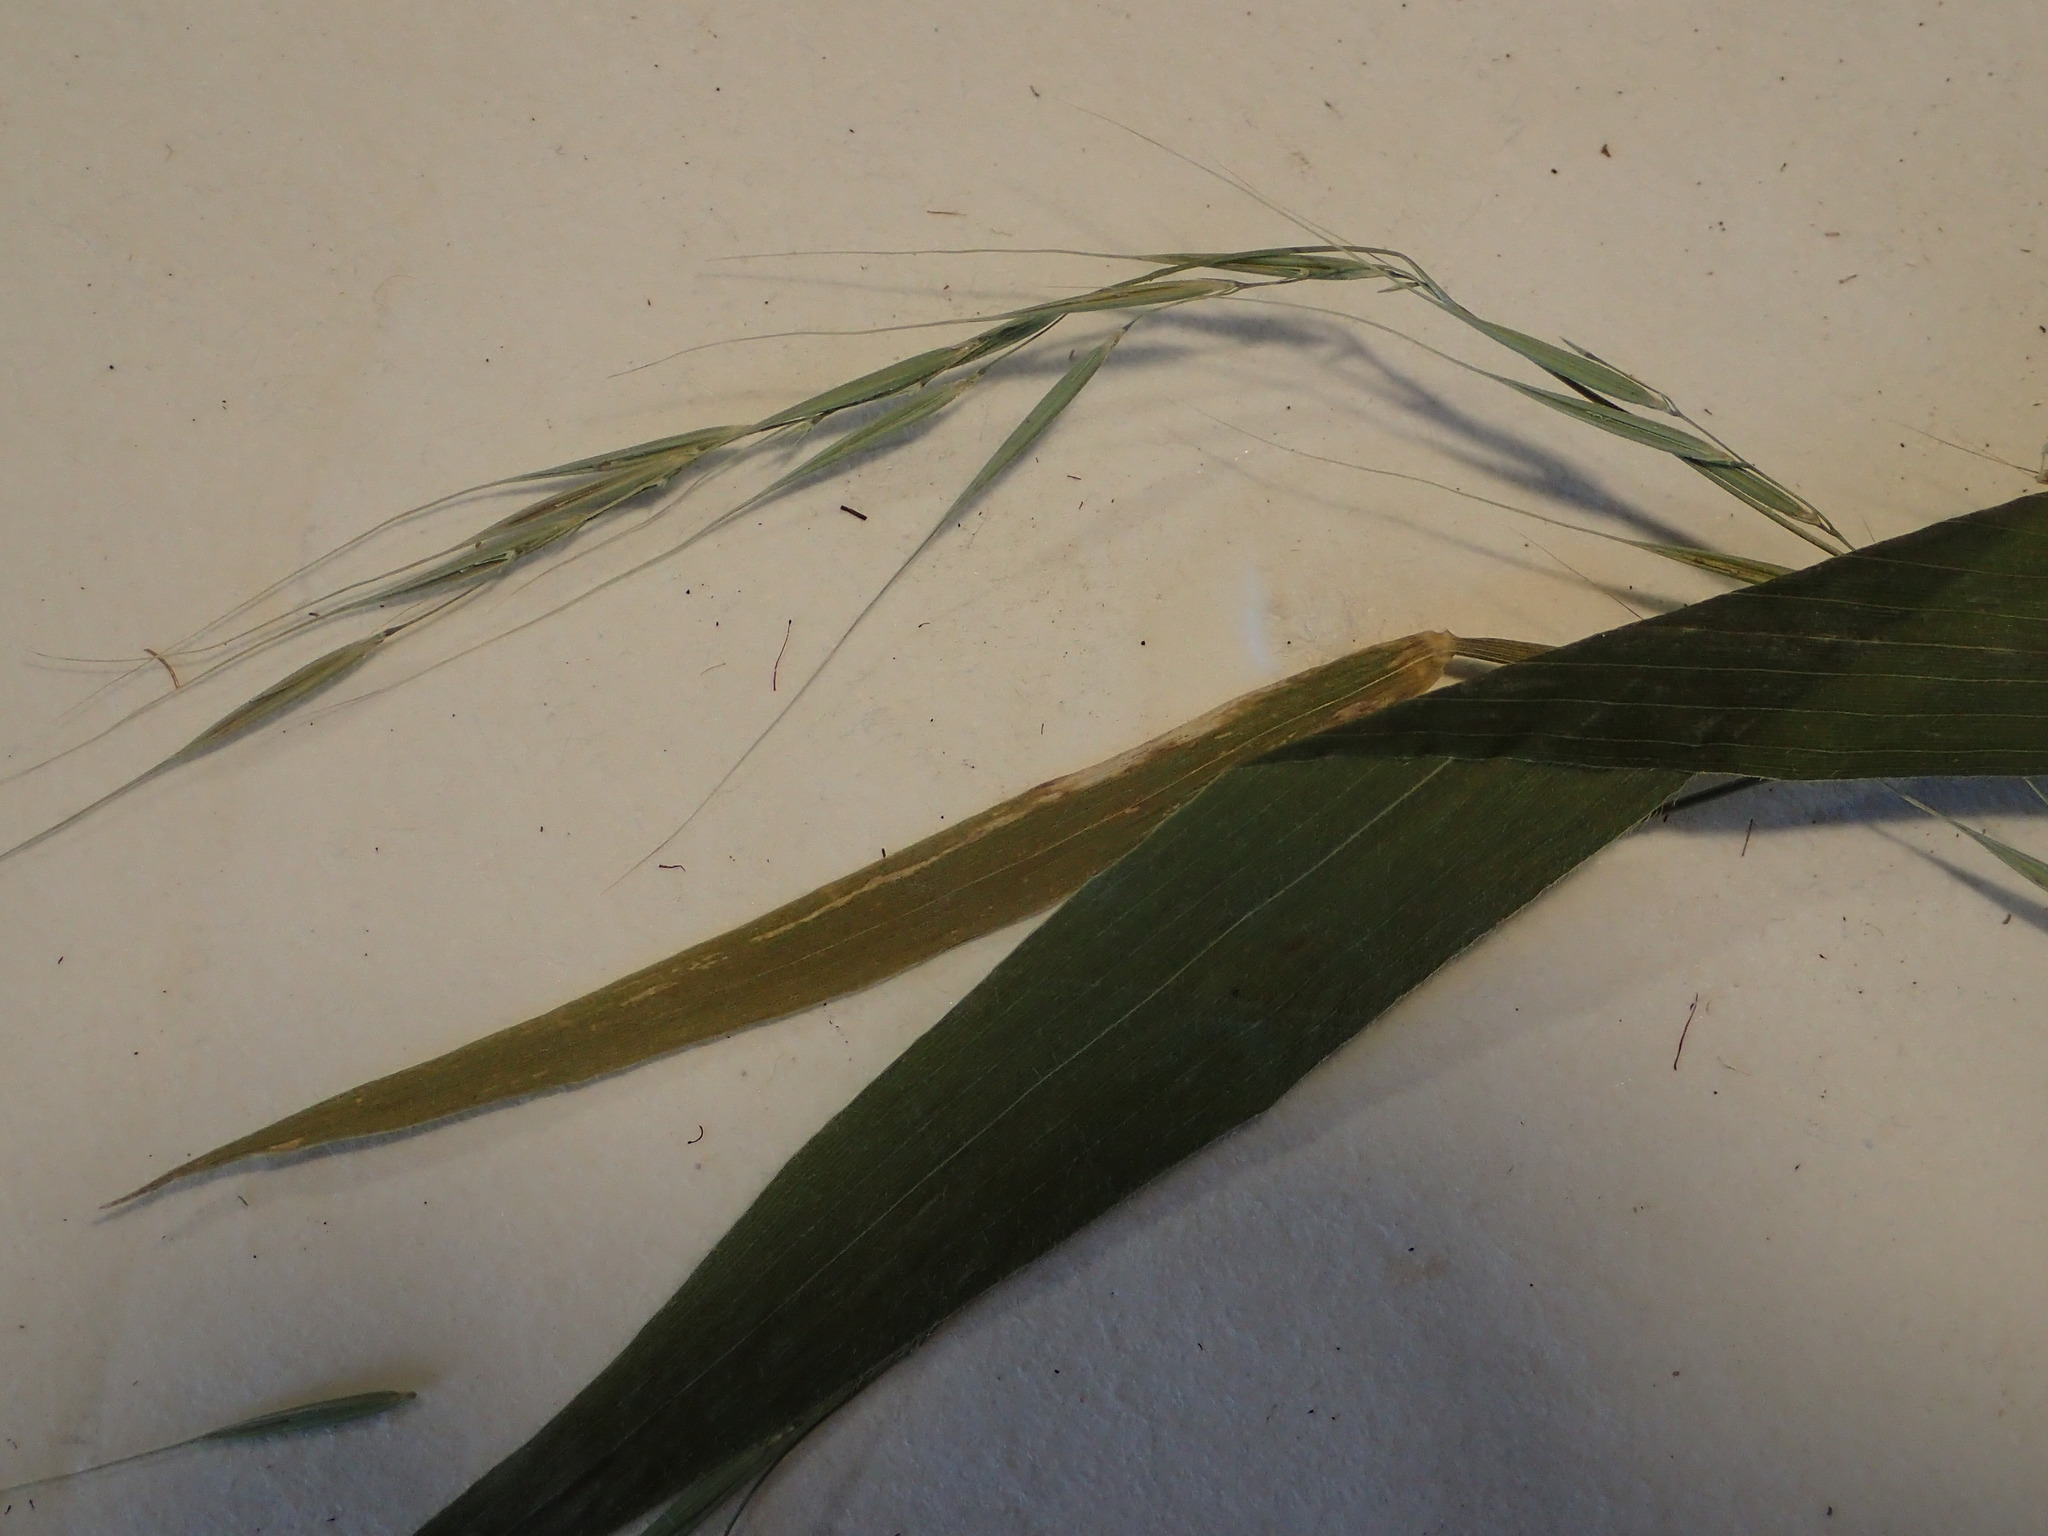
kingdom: Plantae
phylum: Tracheophyta
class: Liliopsida
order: Poales
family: Poaceae
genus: Brachyelytrum
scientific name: Brachyelytrum aristosum
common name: Northern shorthusk
